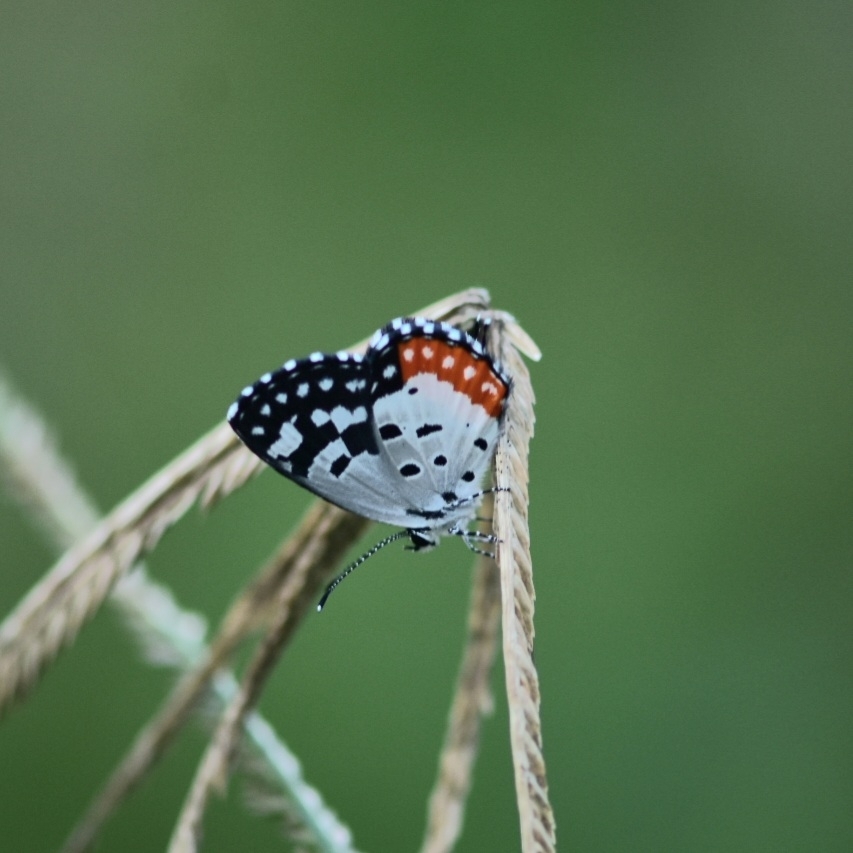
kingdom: Animalia
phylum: Arthropoda
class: Insecta
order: Lepidoptera
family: Lycaenidae
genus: Talicada
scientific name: Talicada nyseus
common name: Red pierrot
